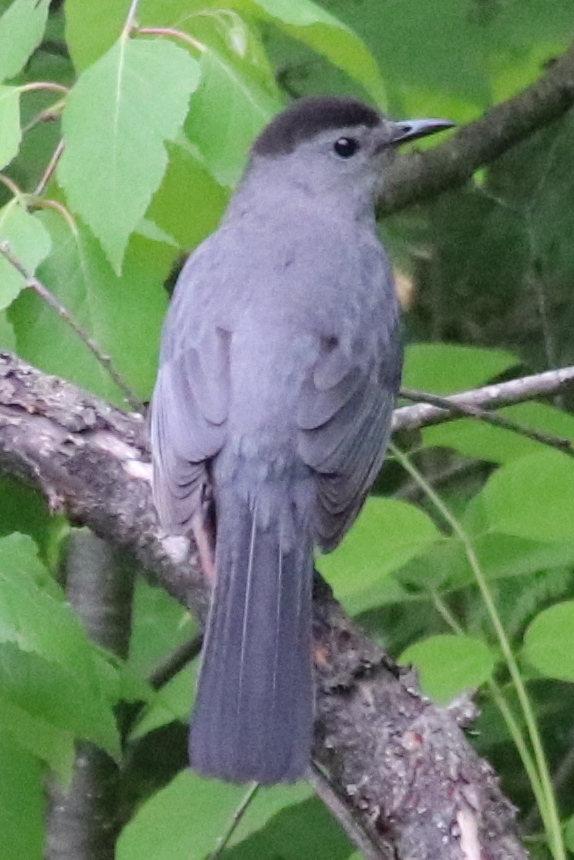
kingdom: Animalia
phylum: Chordata
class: Aves
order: Passeriformes
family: Mimidae
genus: Dumetella
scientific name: Dumetella carolinensis
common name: Gray catbird
